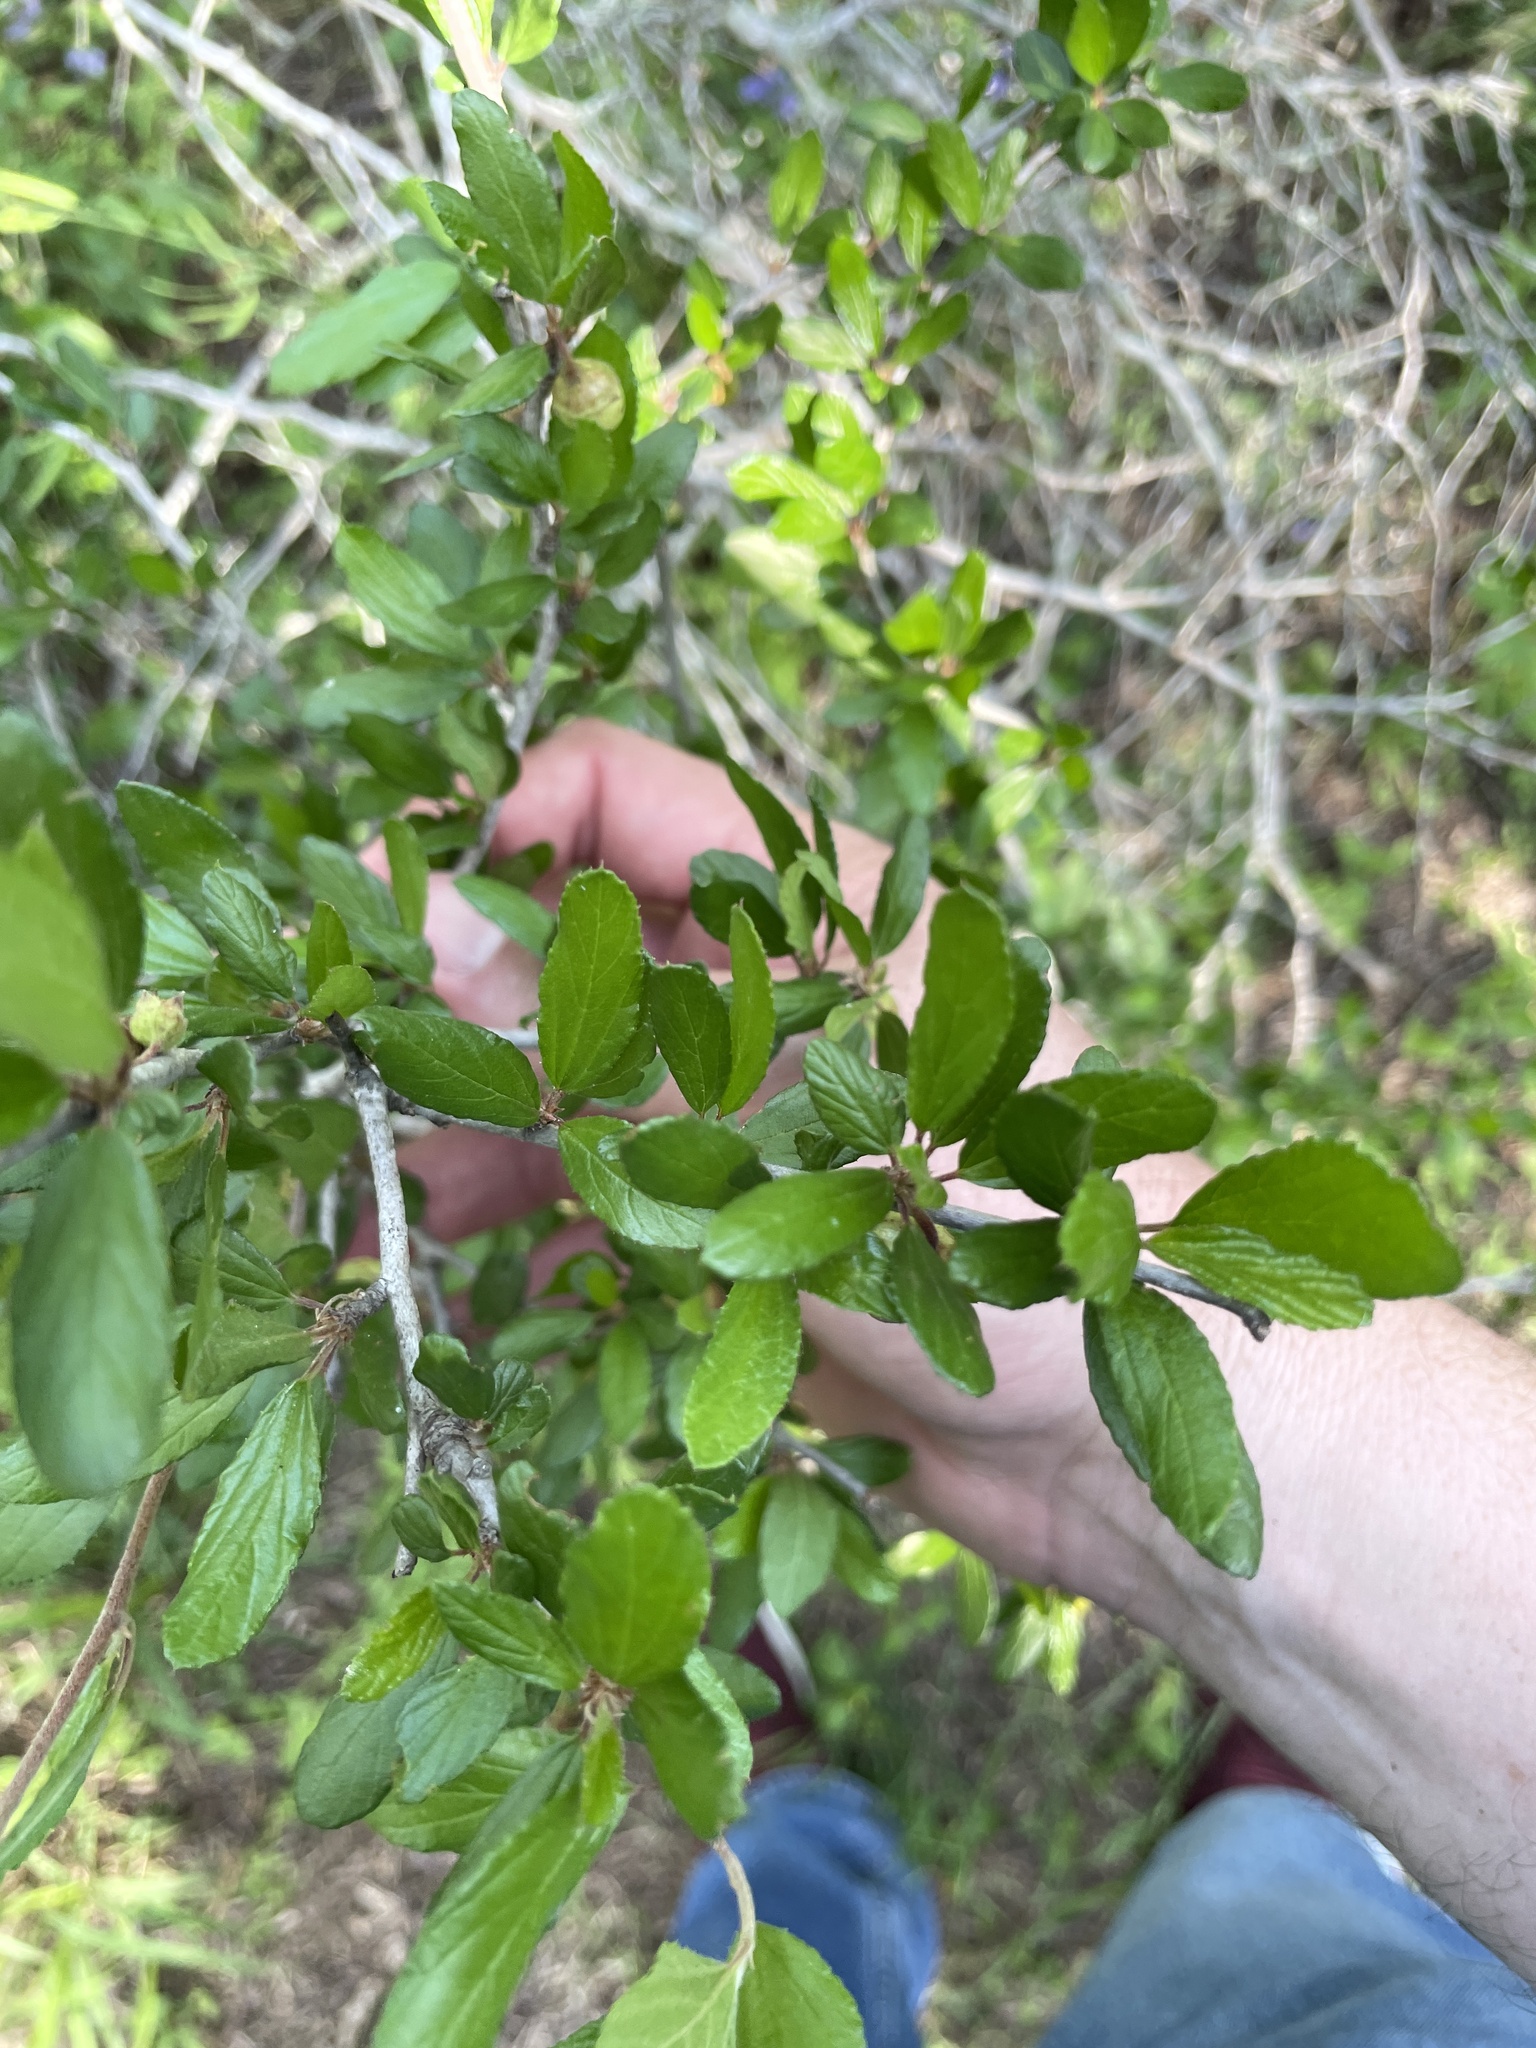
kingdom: Plantae
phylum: Tracheophyta
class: Magnoliopsida
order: Rosales
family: Rhamnaceae
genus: Colubrina
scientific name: Colubrina texensis
